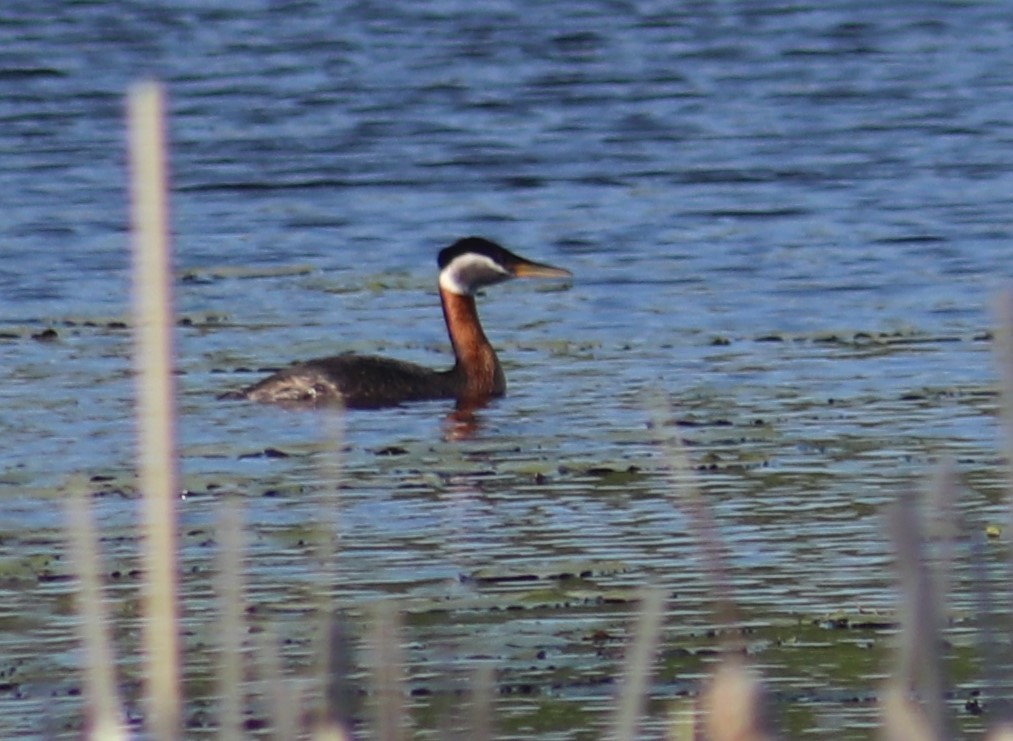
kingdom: Animalia
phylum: Chordata
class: Aves
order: Podicipediformes
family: Podicipedidae
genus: Podiceps
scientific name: Podiceps grisegena
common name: Red-necked grebe
